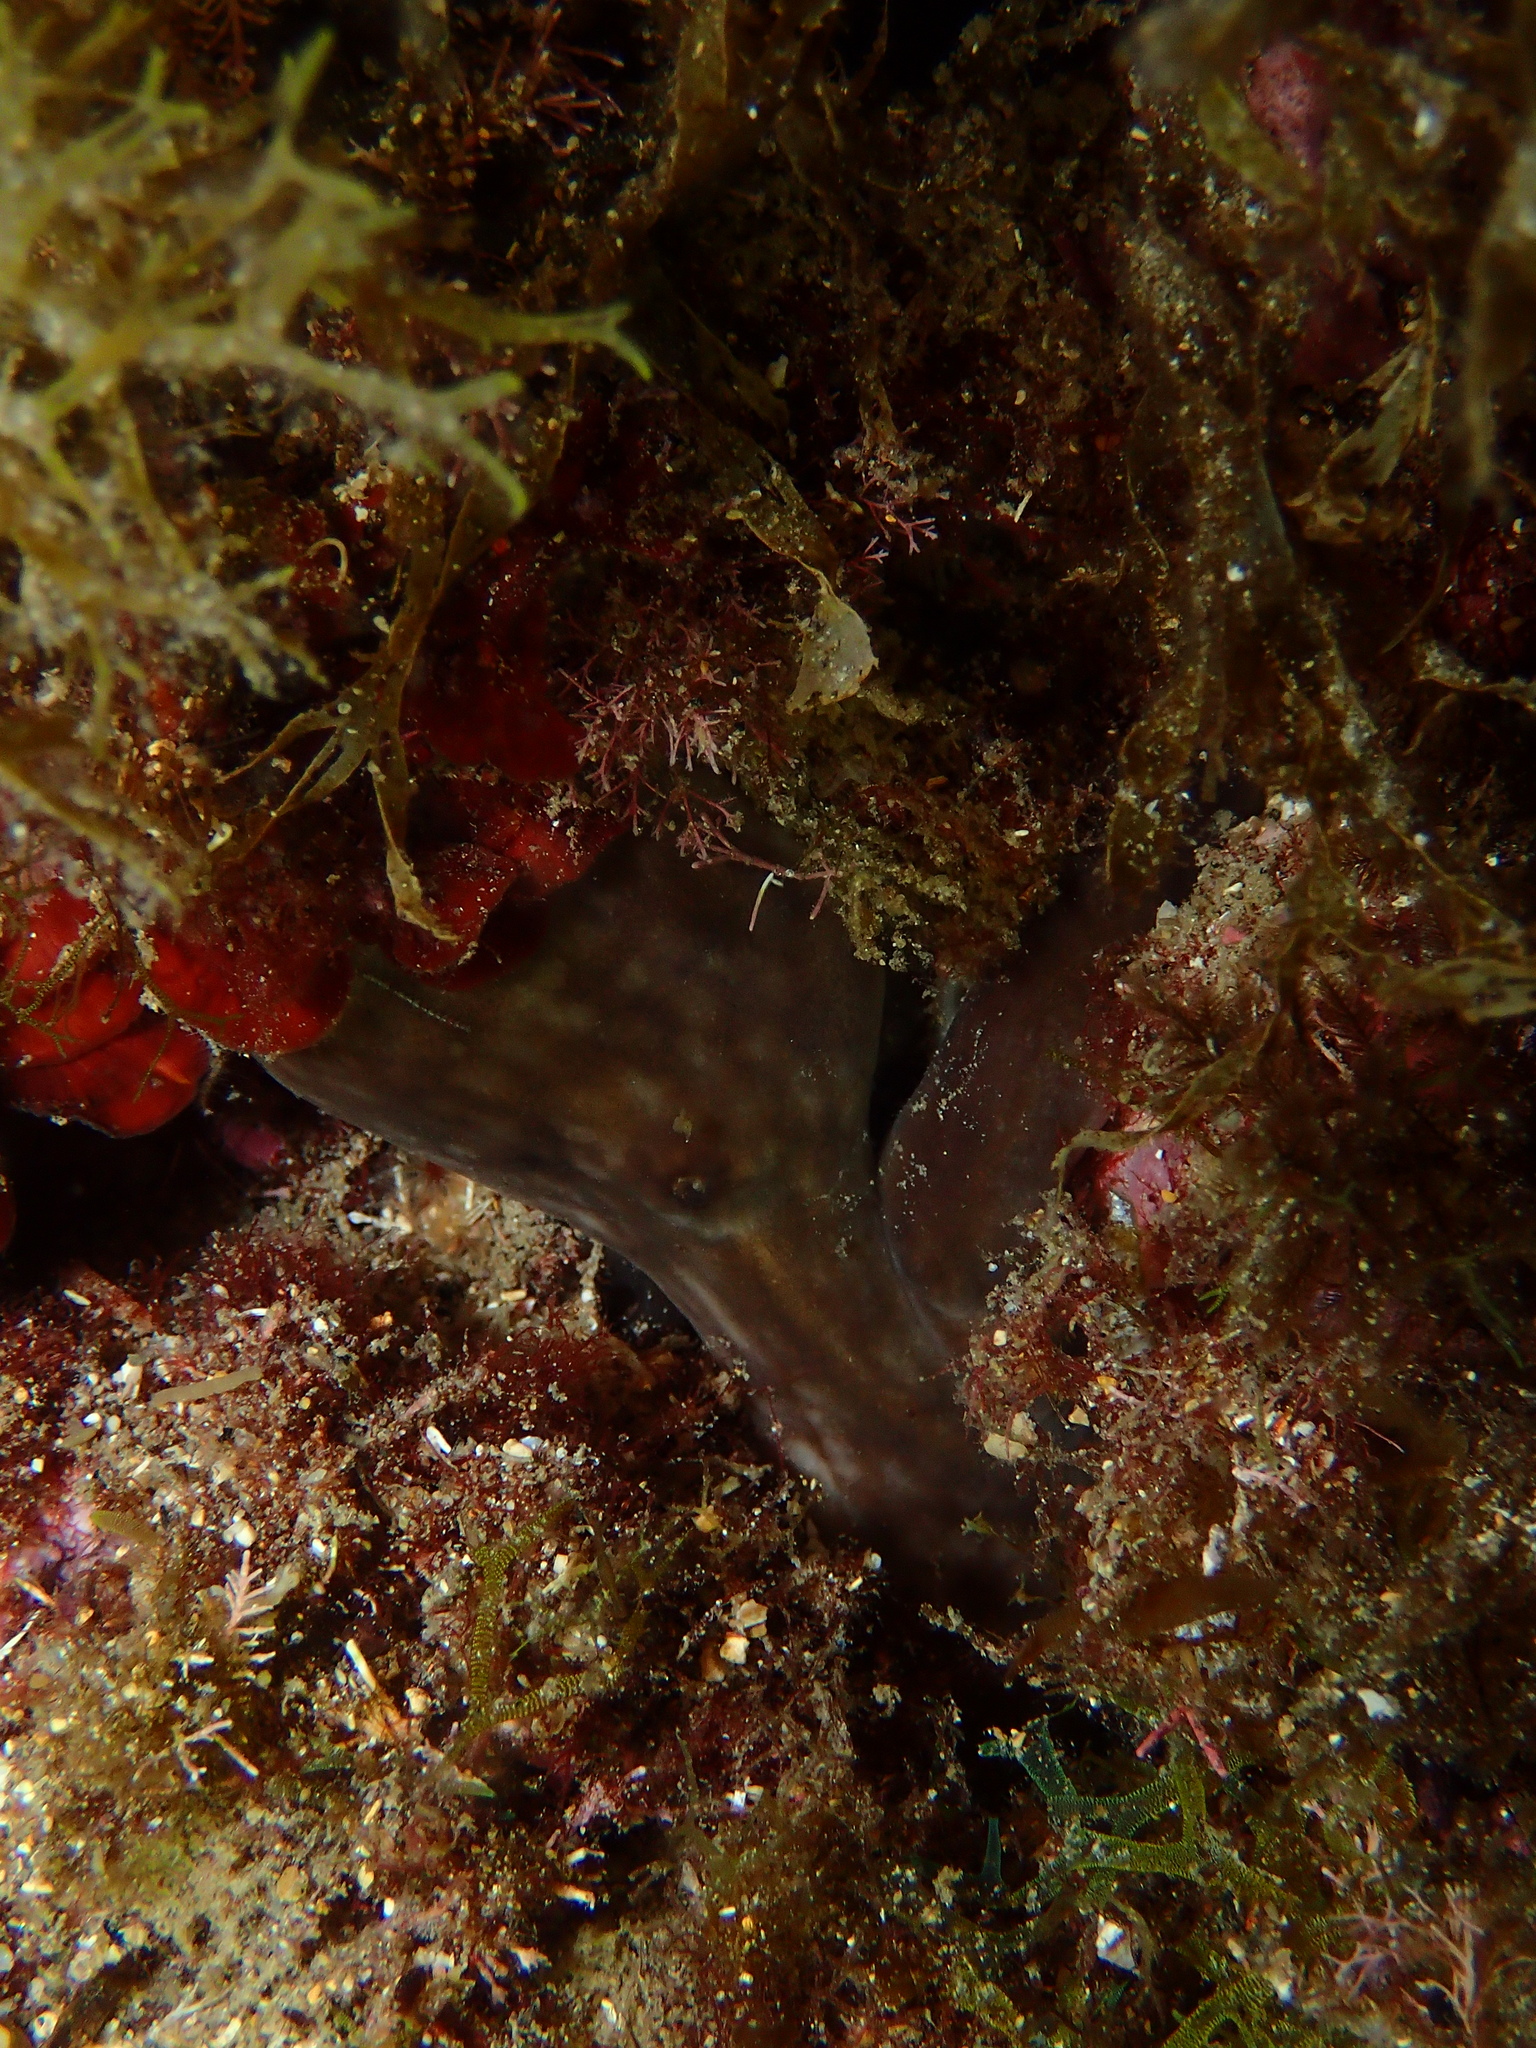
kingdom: Animalia
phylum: Porifera
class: Demospongiae
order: Chondrosiida
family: Chondrosiidae
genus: Chondrosia
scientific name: Chondrosia reniformis
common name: Chicken liver sponge
